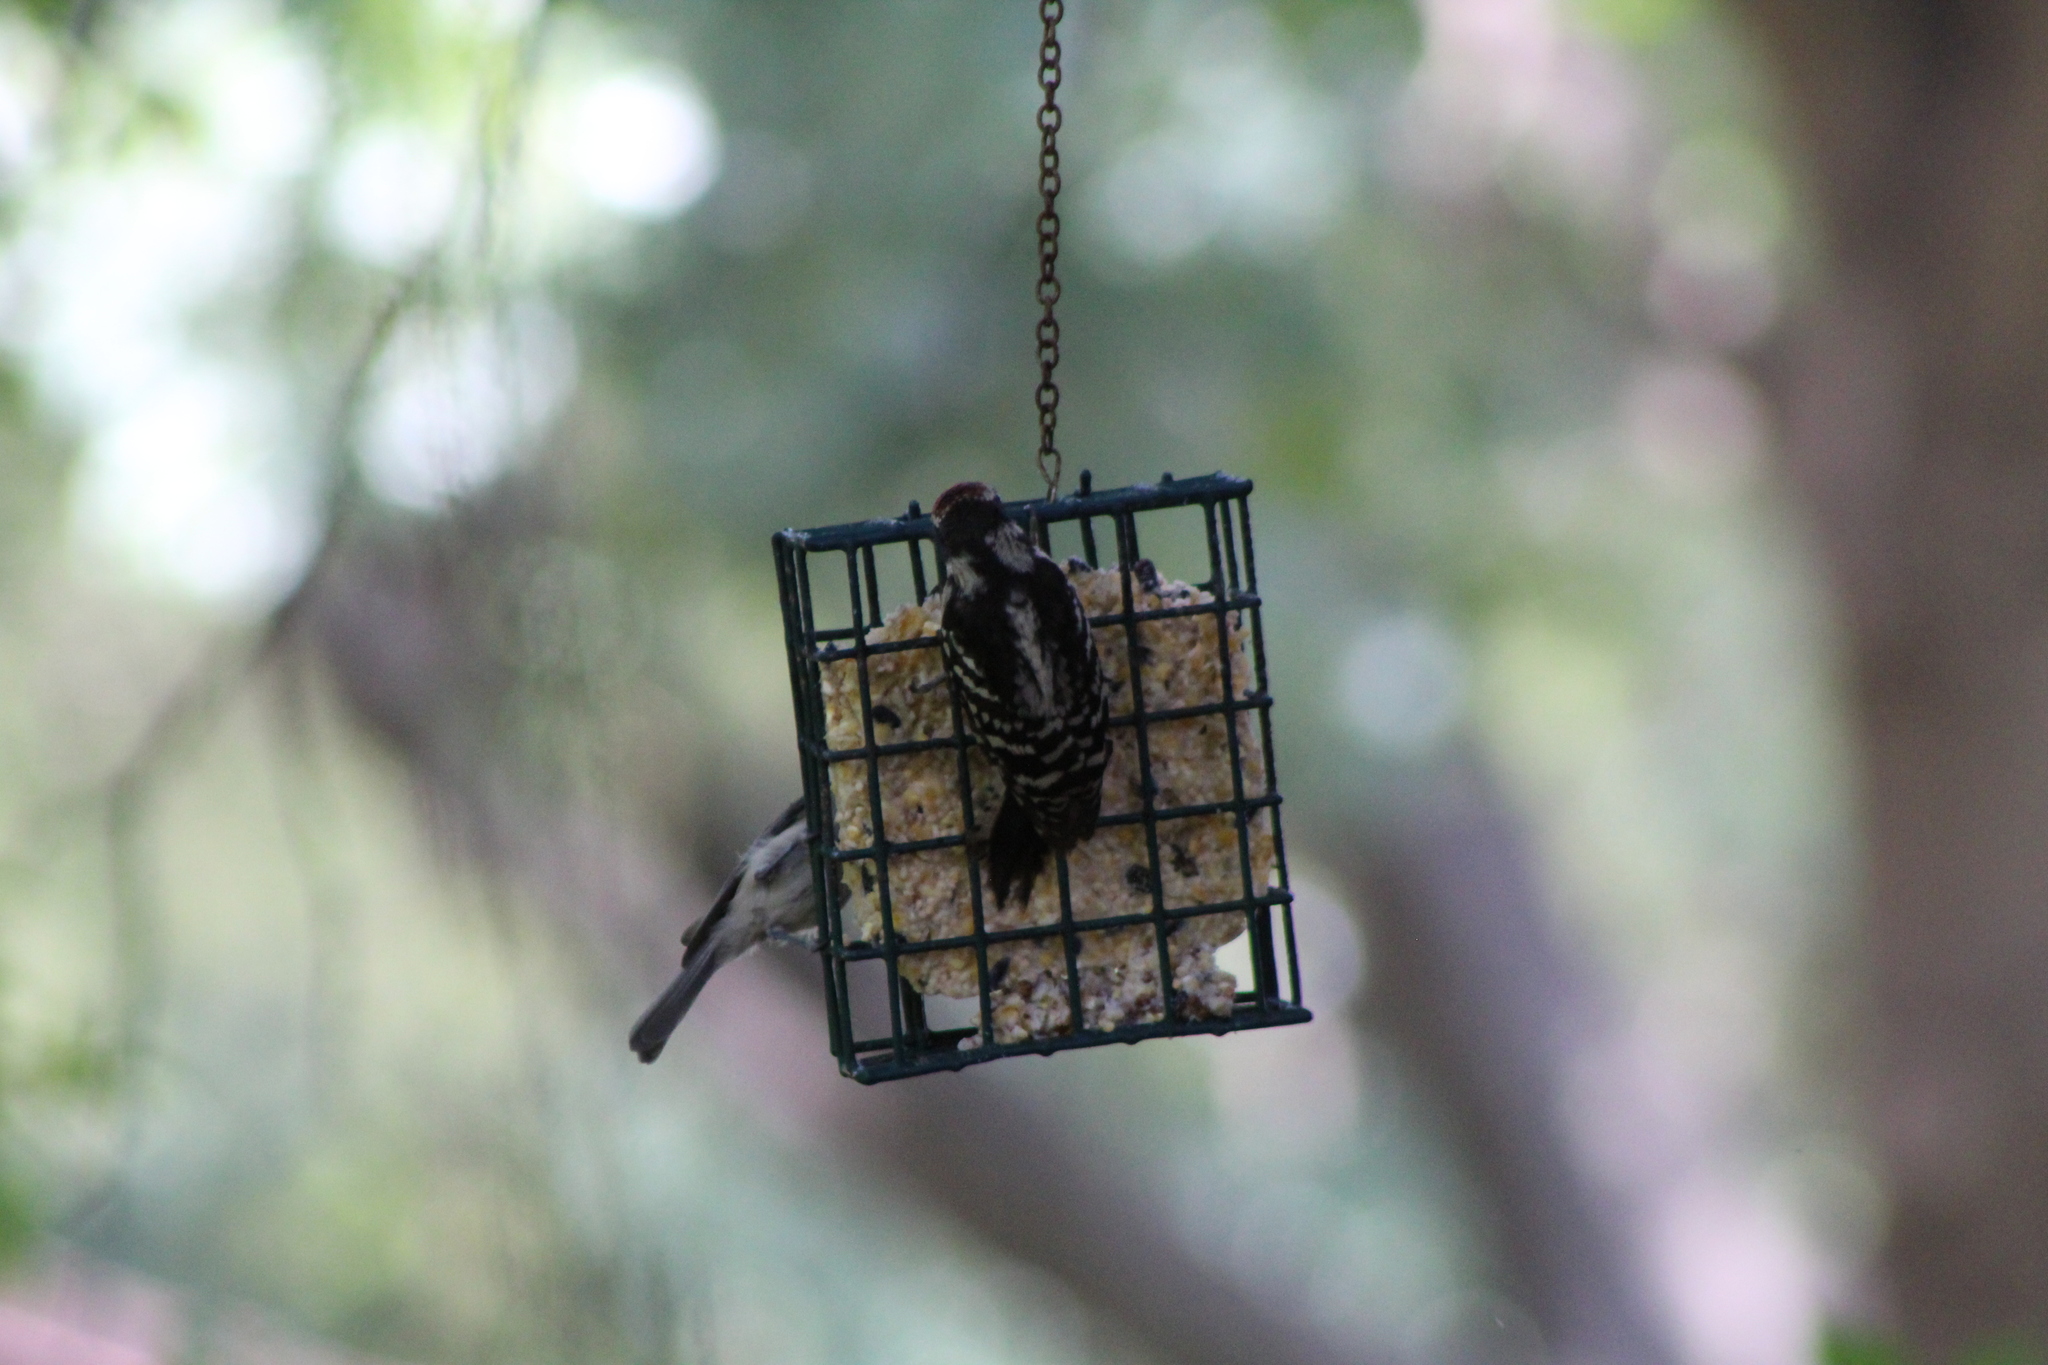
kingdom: Animalia
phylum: Chordata
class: Aves
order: Piciformes
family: Picidae
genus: Dryobates
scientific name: Dryobates pubescens
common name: Downy woodpecker
